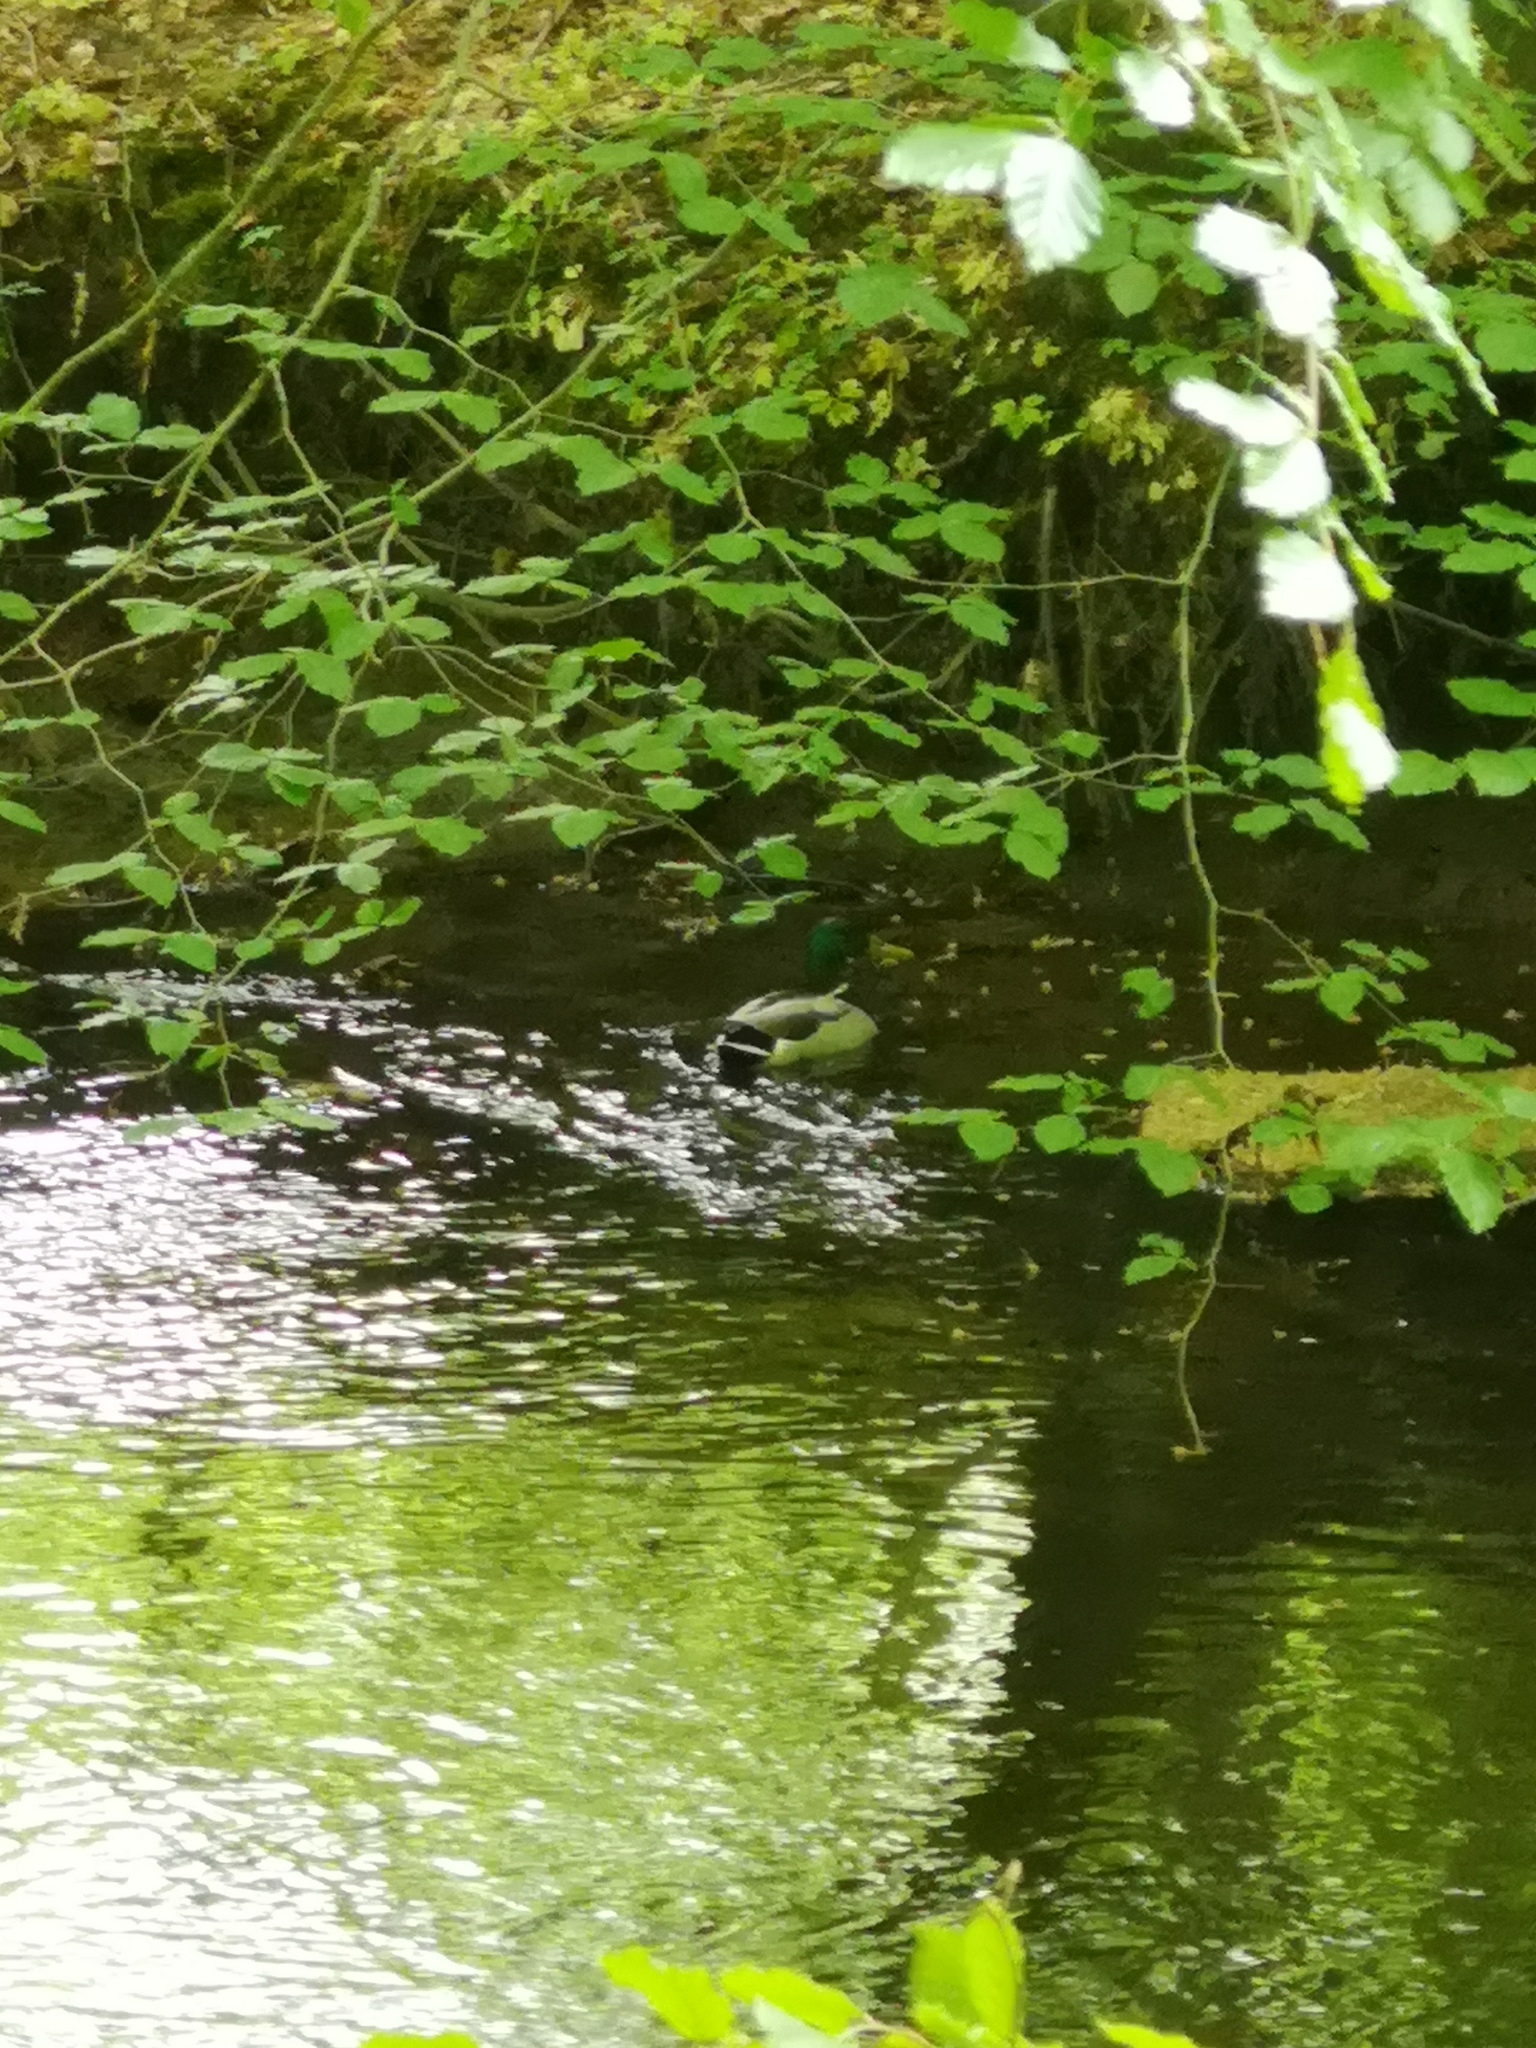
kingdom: Animalia
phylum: Chordata
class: Aves
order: Anseriformes
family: Anatidae
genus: Anas
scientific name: Anas platyrhynchos
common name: Mallard
